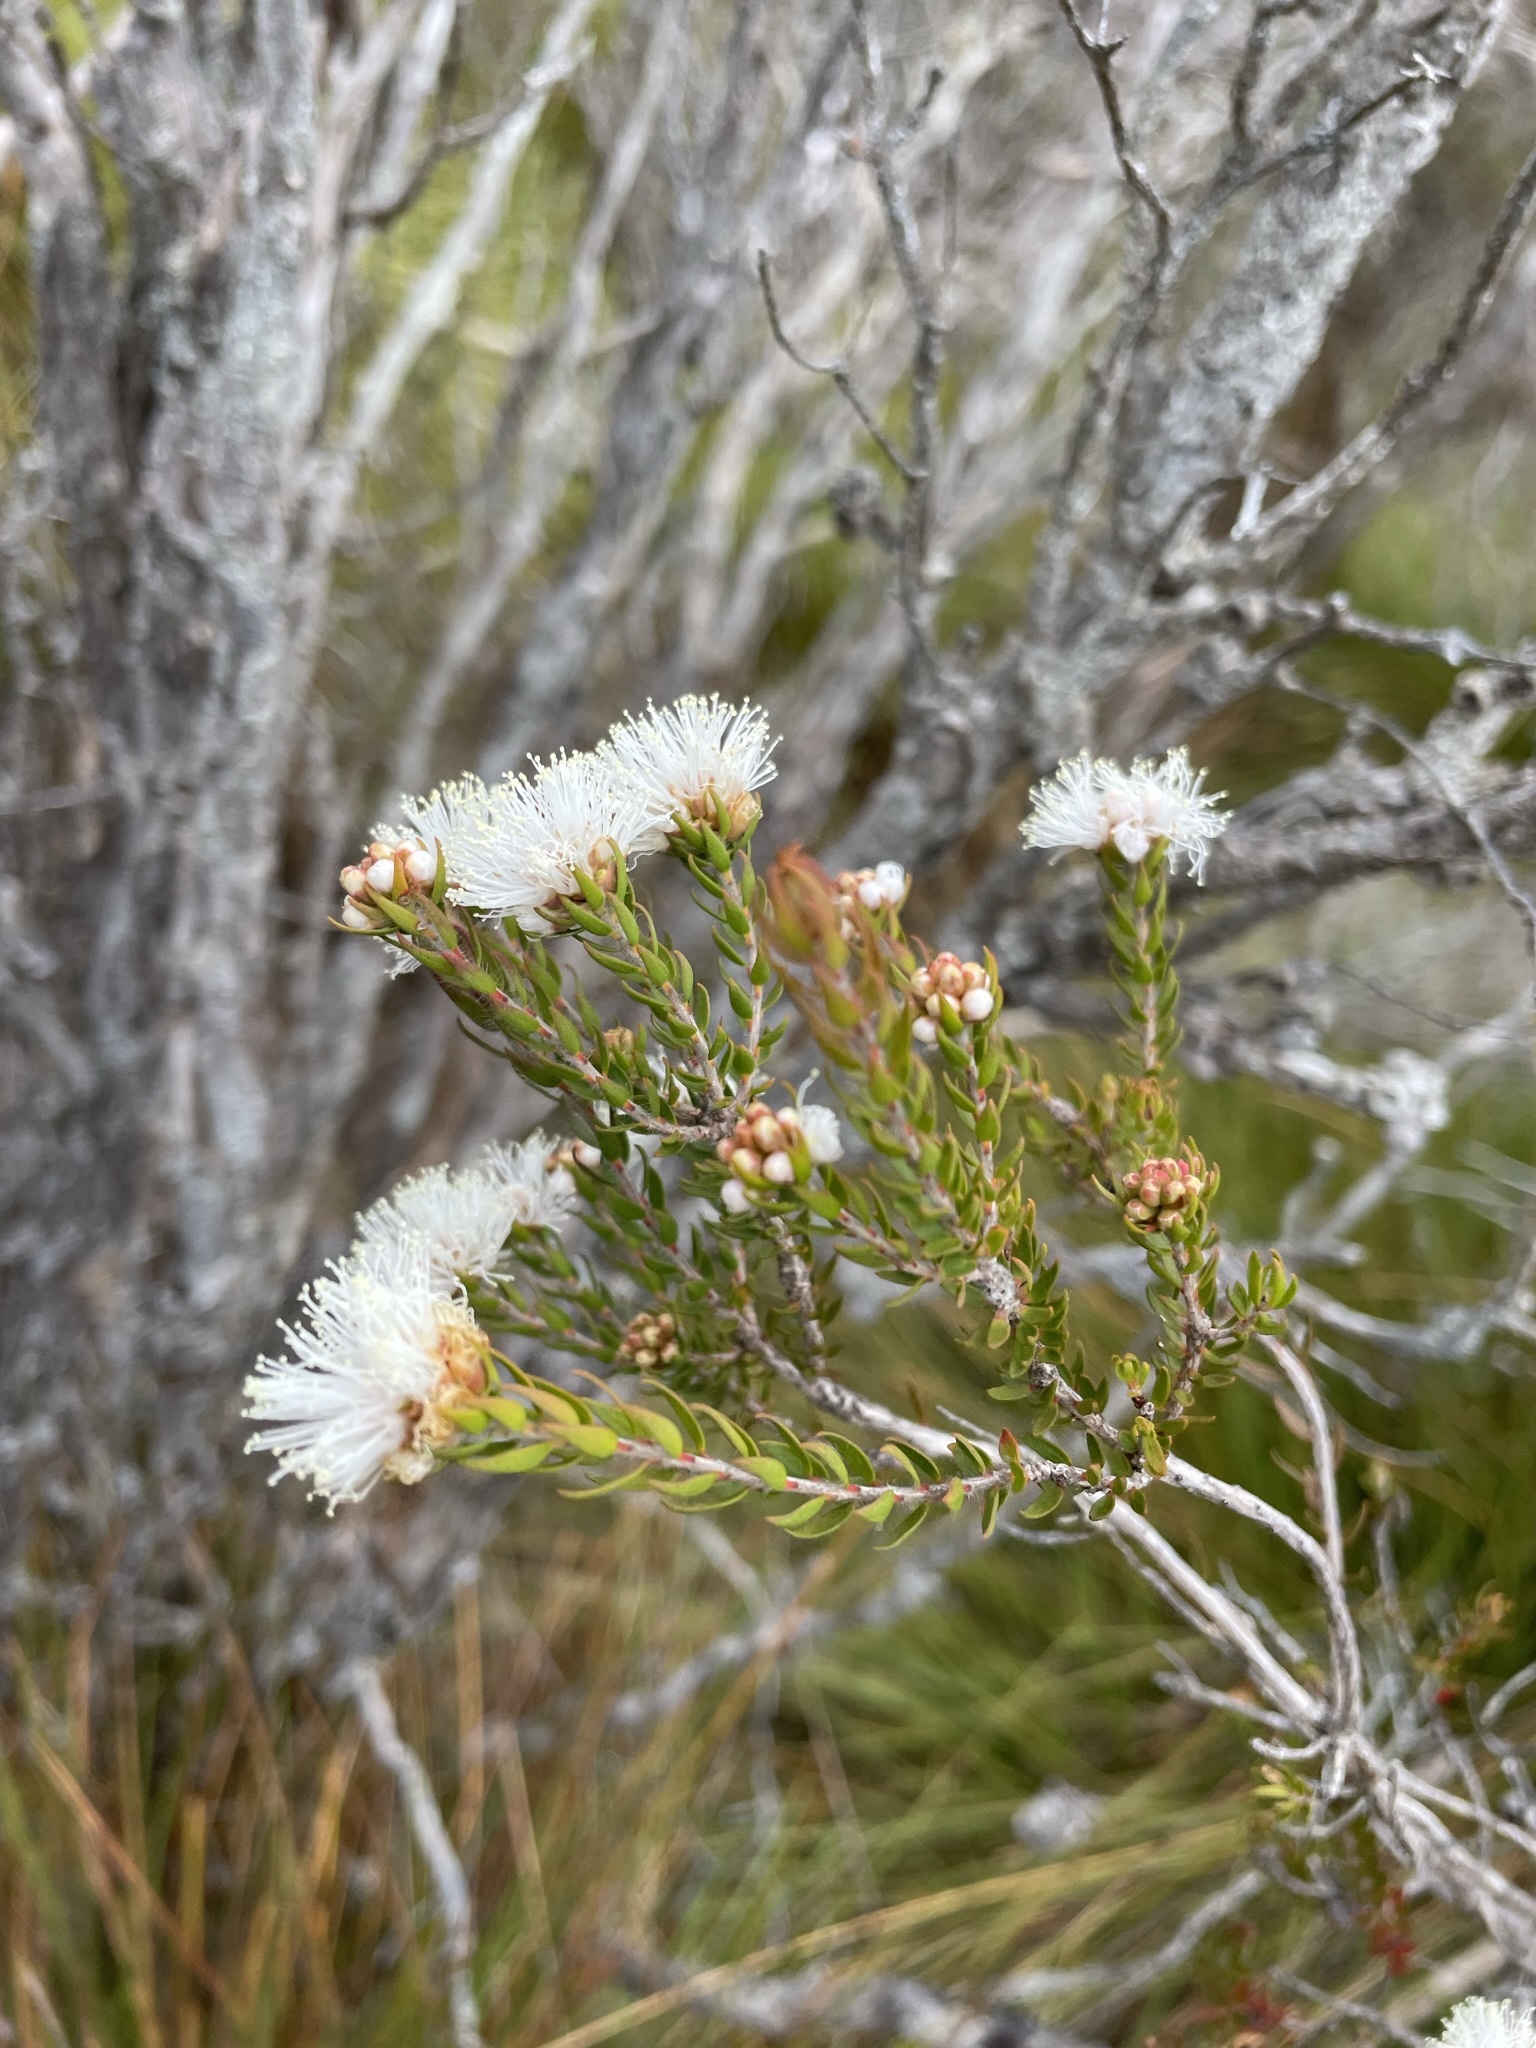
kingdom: Plantae
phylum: Tracheophyta
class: Magnoliopsida
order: Myrtales
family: Myrtaceae
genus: Melaleuca
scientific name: Melaleuca squamea
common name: Swamp melaleuca
